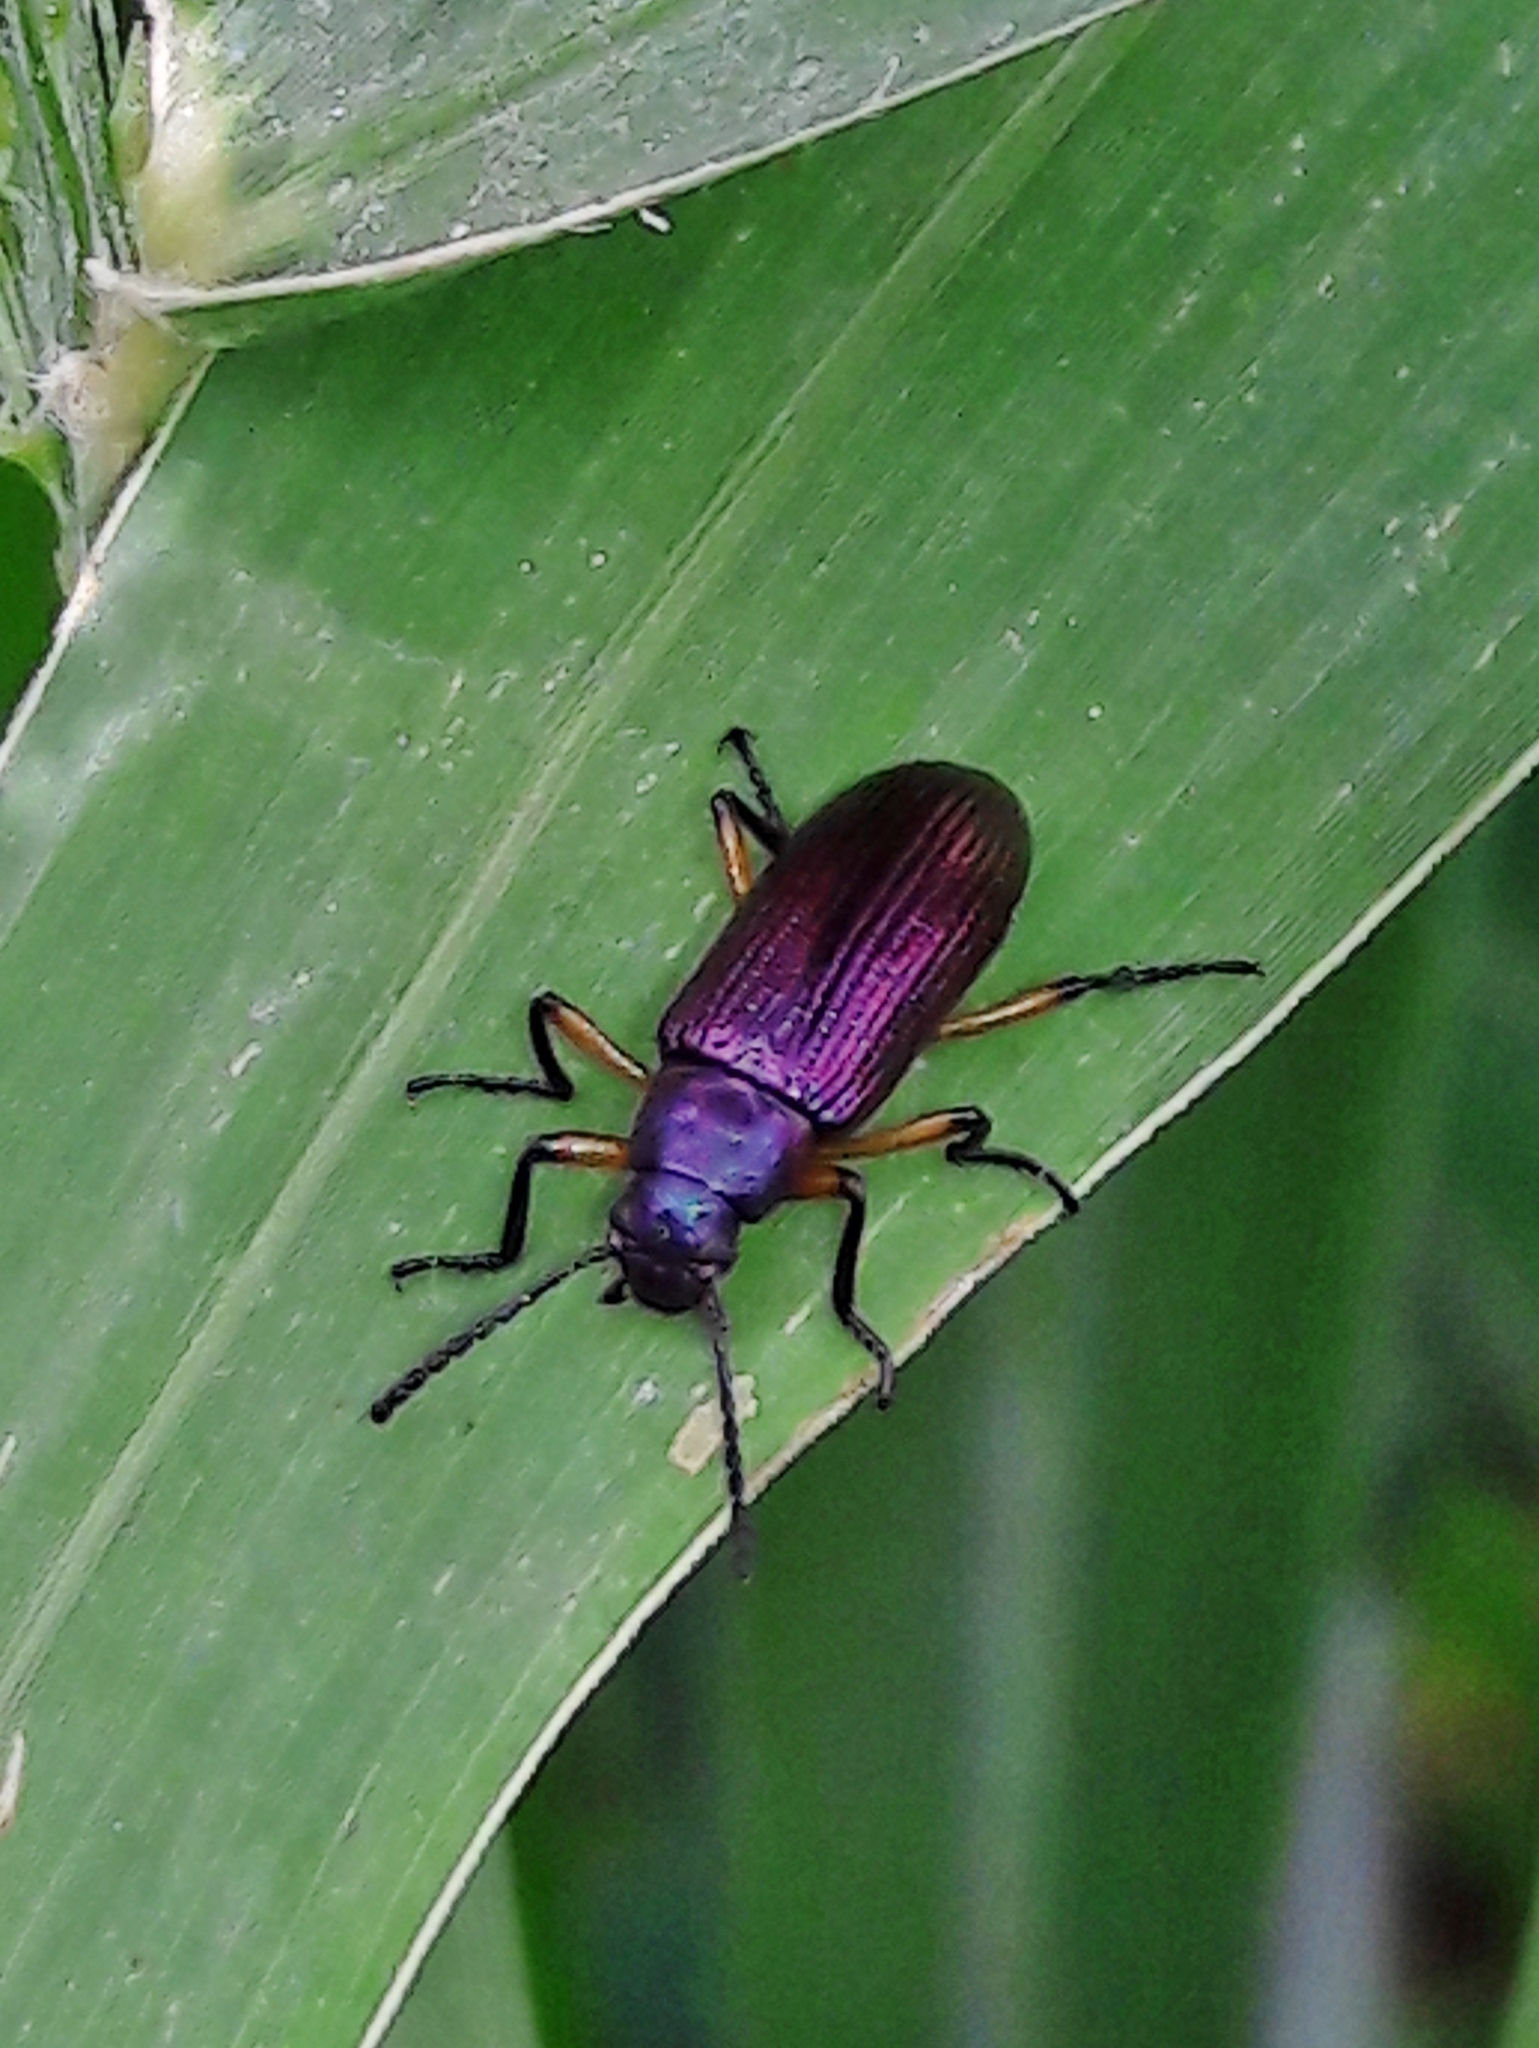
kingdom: Animalia
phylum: Arthropoda
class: Insecta
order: Coleoptera
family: Tenebrionidae
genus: Strongylium
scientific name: Strongylium
